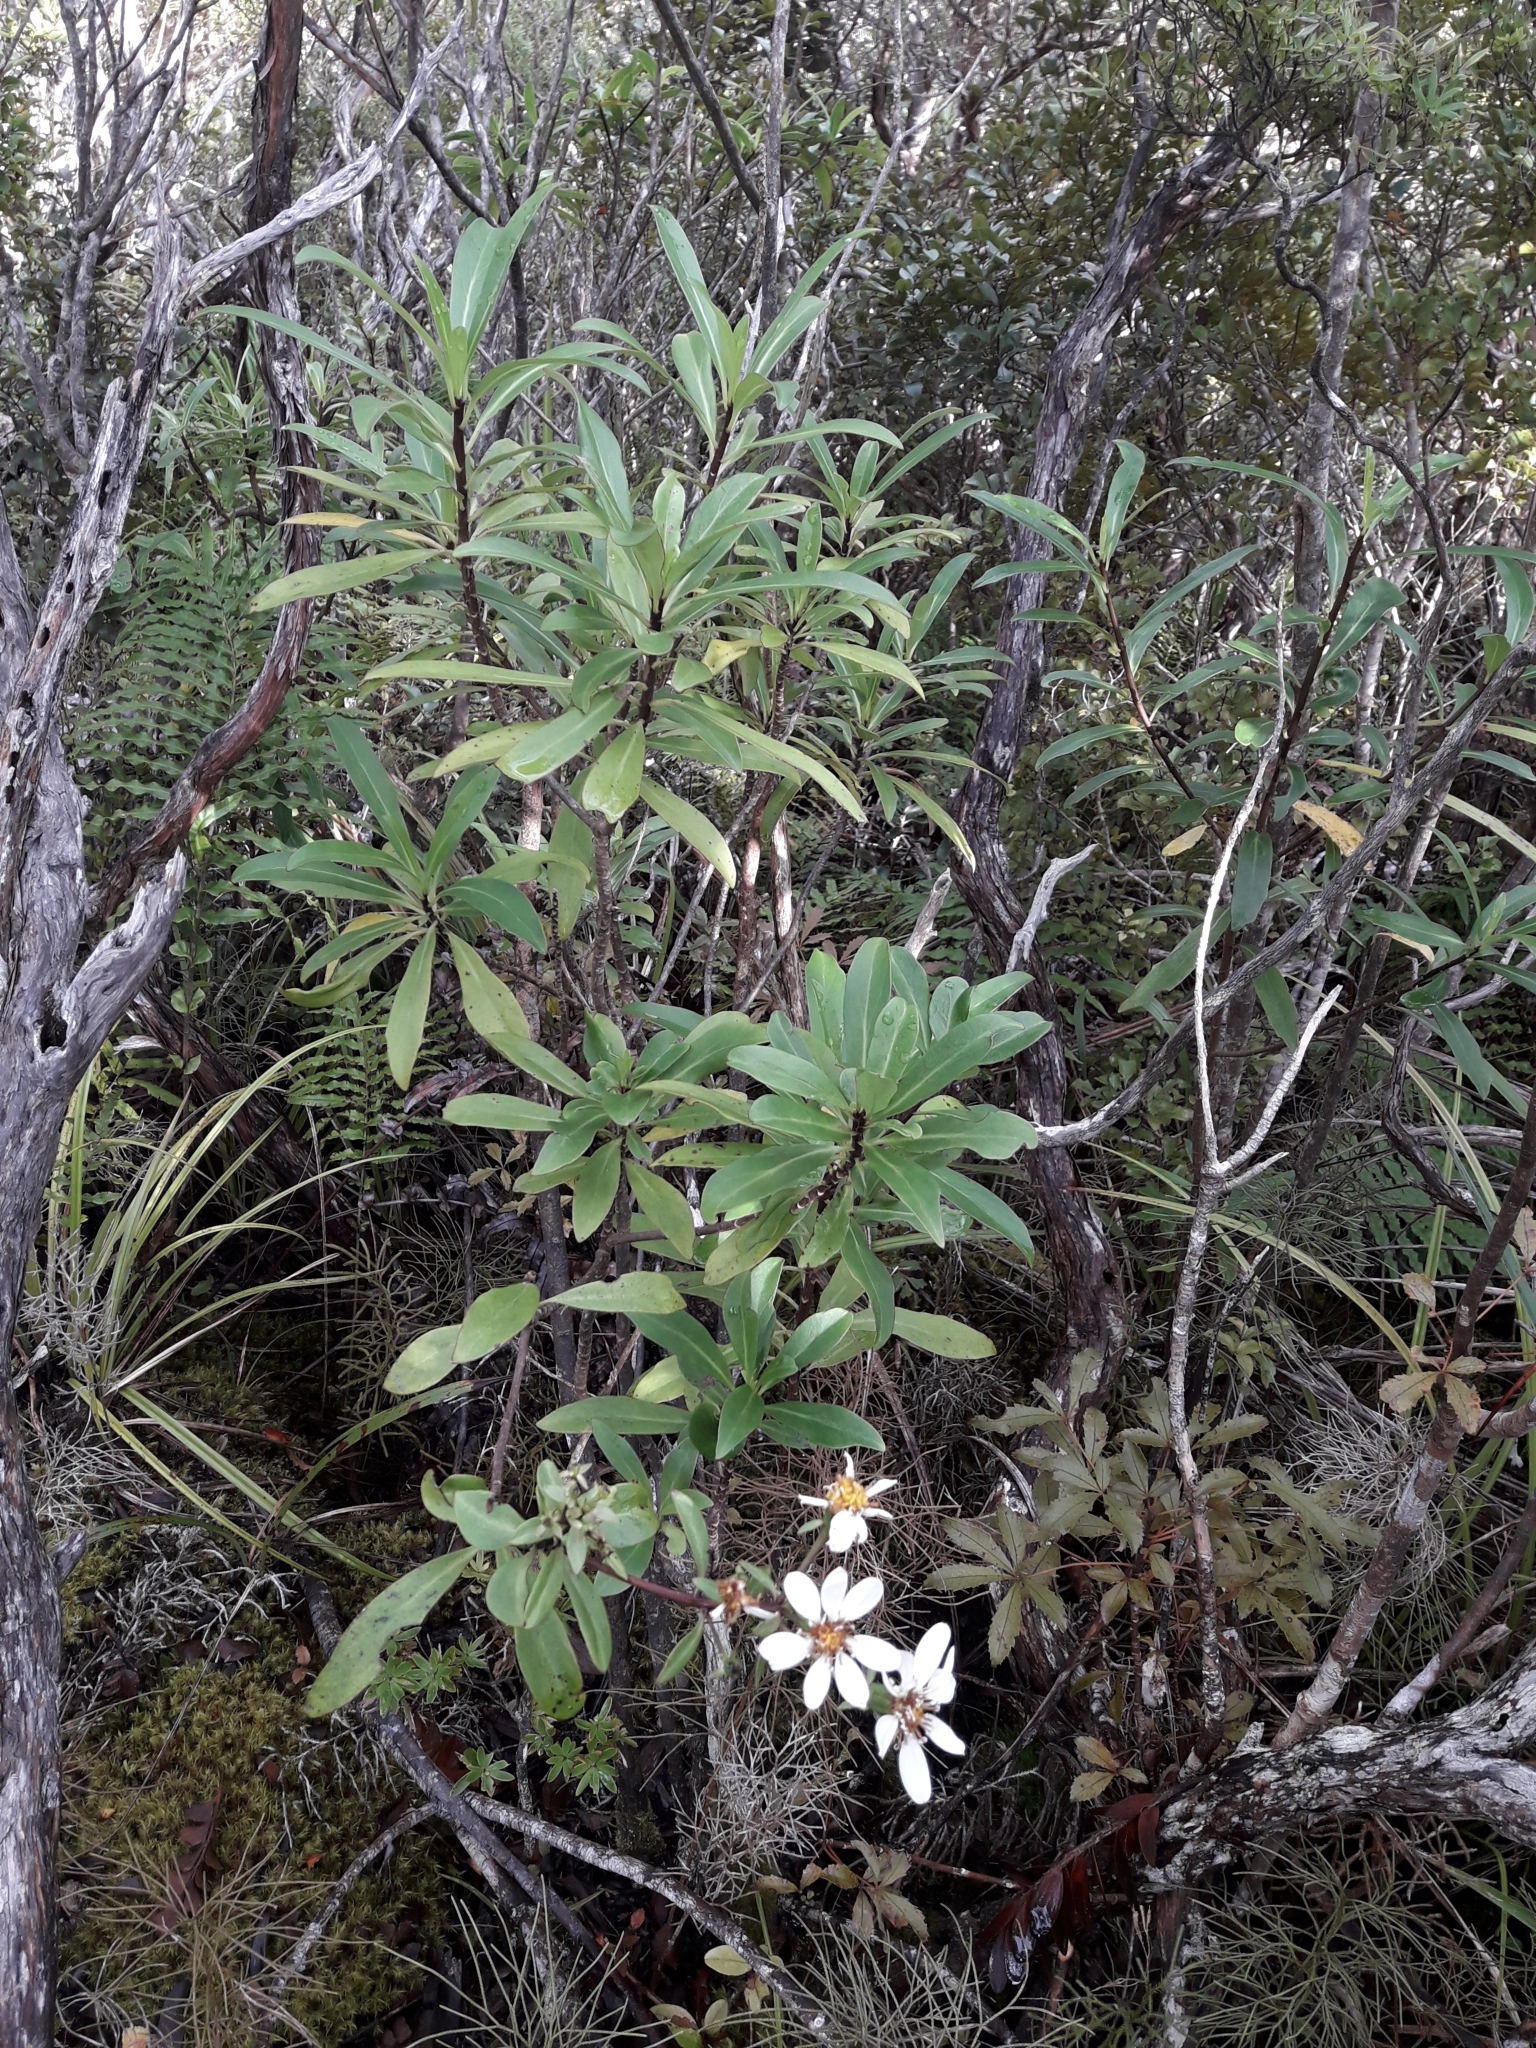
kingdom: Plantae
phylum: Tracheophyta
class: Magnoliopsida
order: Asterales
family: Asteraceae
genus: Brachyglottis
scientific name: Brachyglottis kirkii
